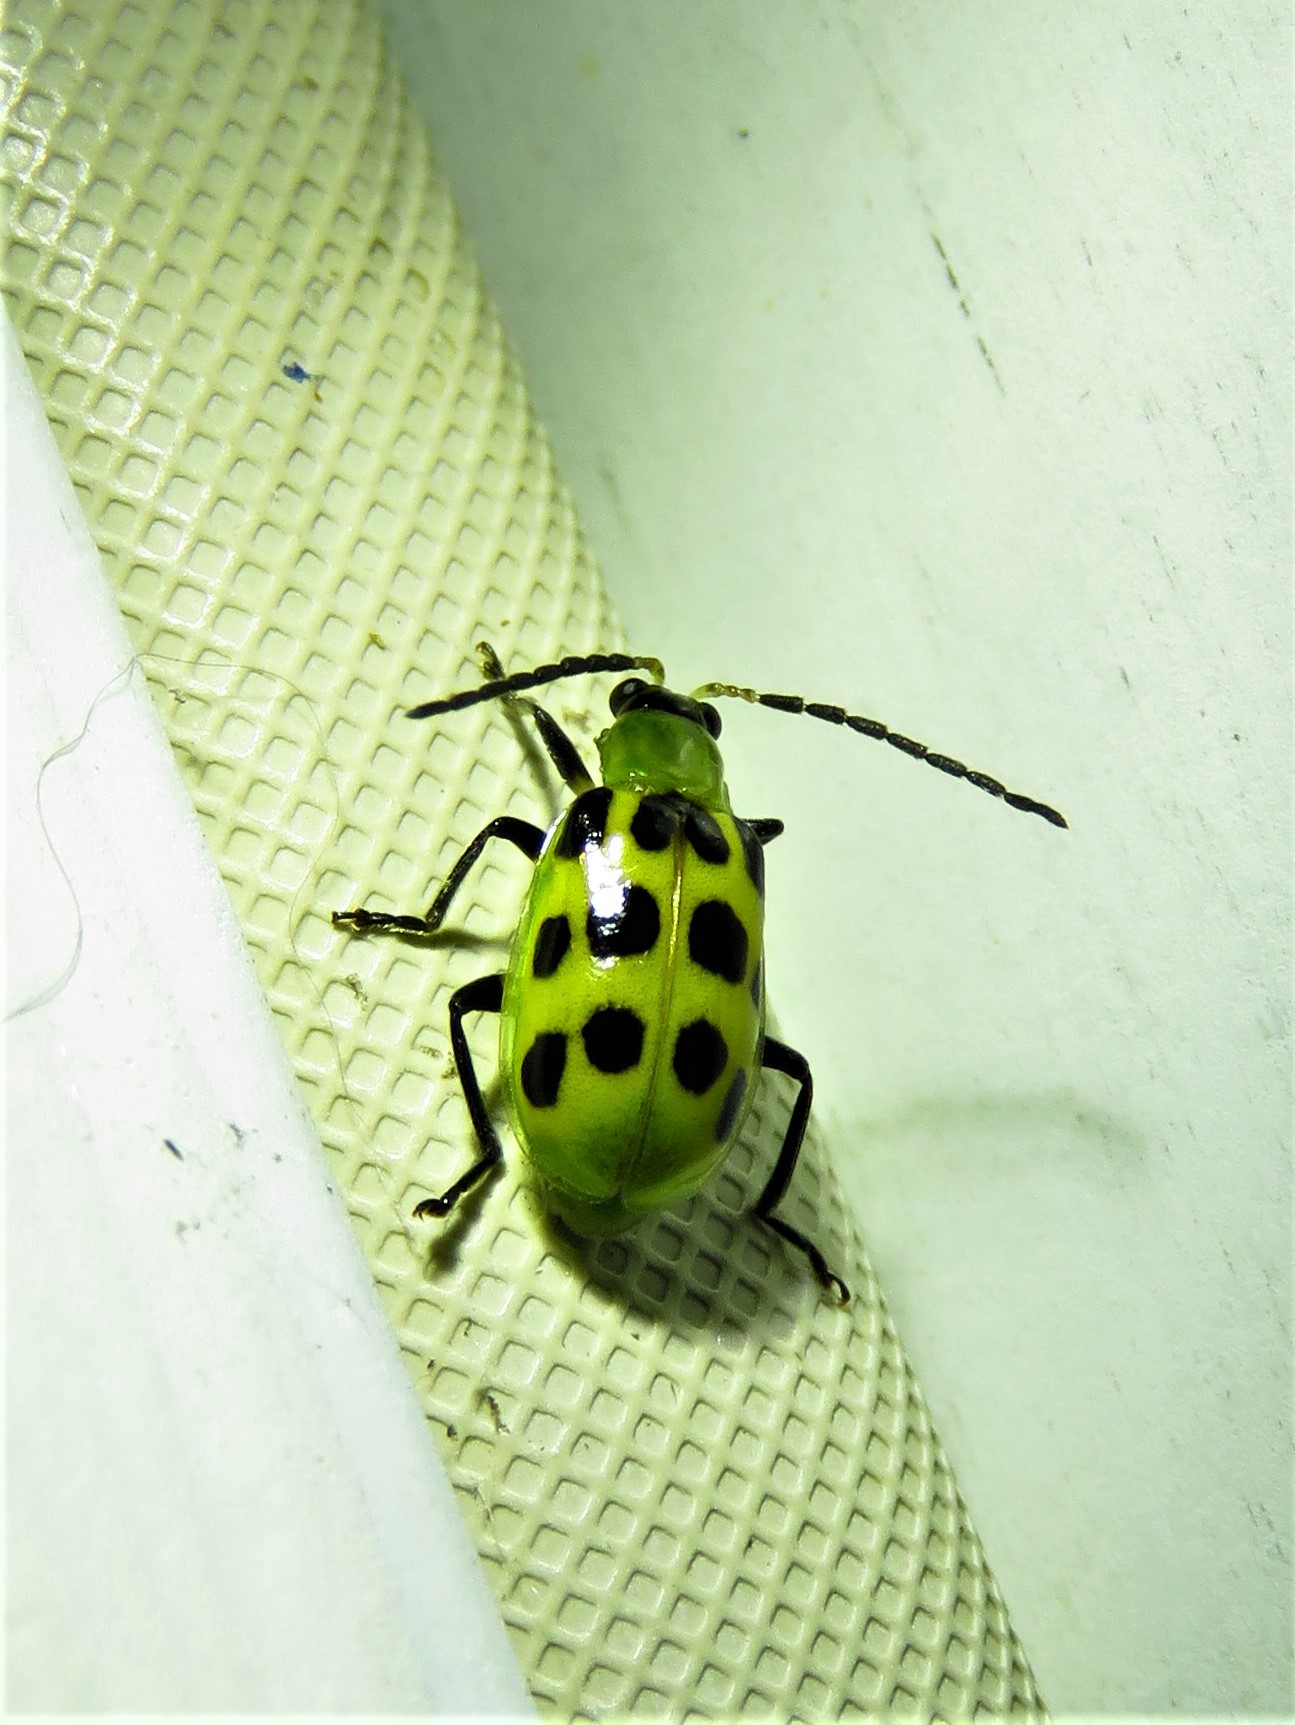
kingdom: Animalia
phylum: Arthropoda
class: Insecta
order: Coleoptera
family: Chrysomelidae
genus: Diabrotica
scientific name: Diabrotica undecimpunctata
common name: Spotted cucumber beetle
